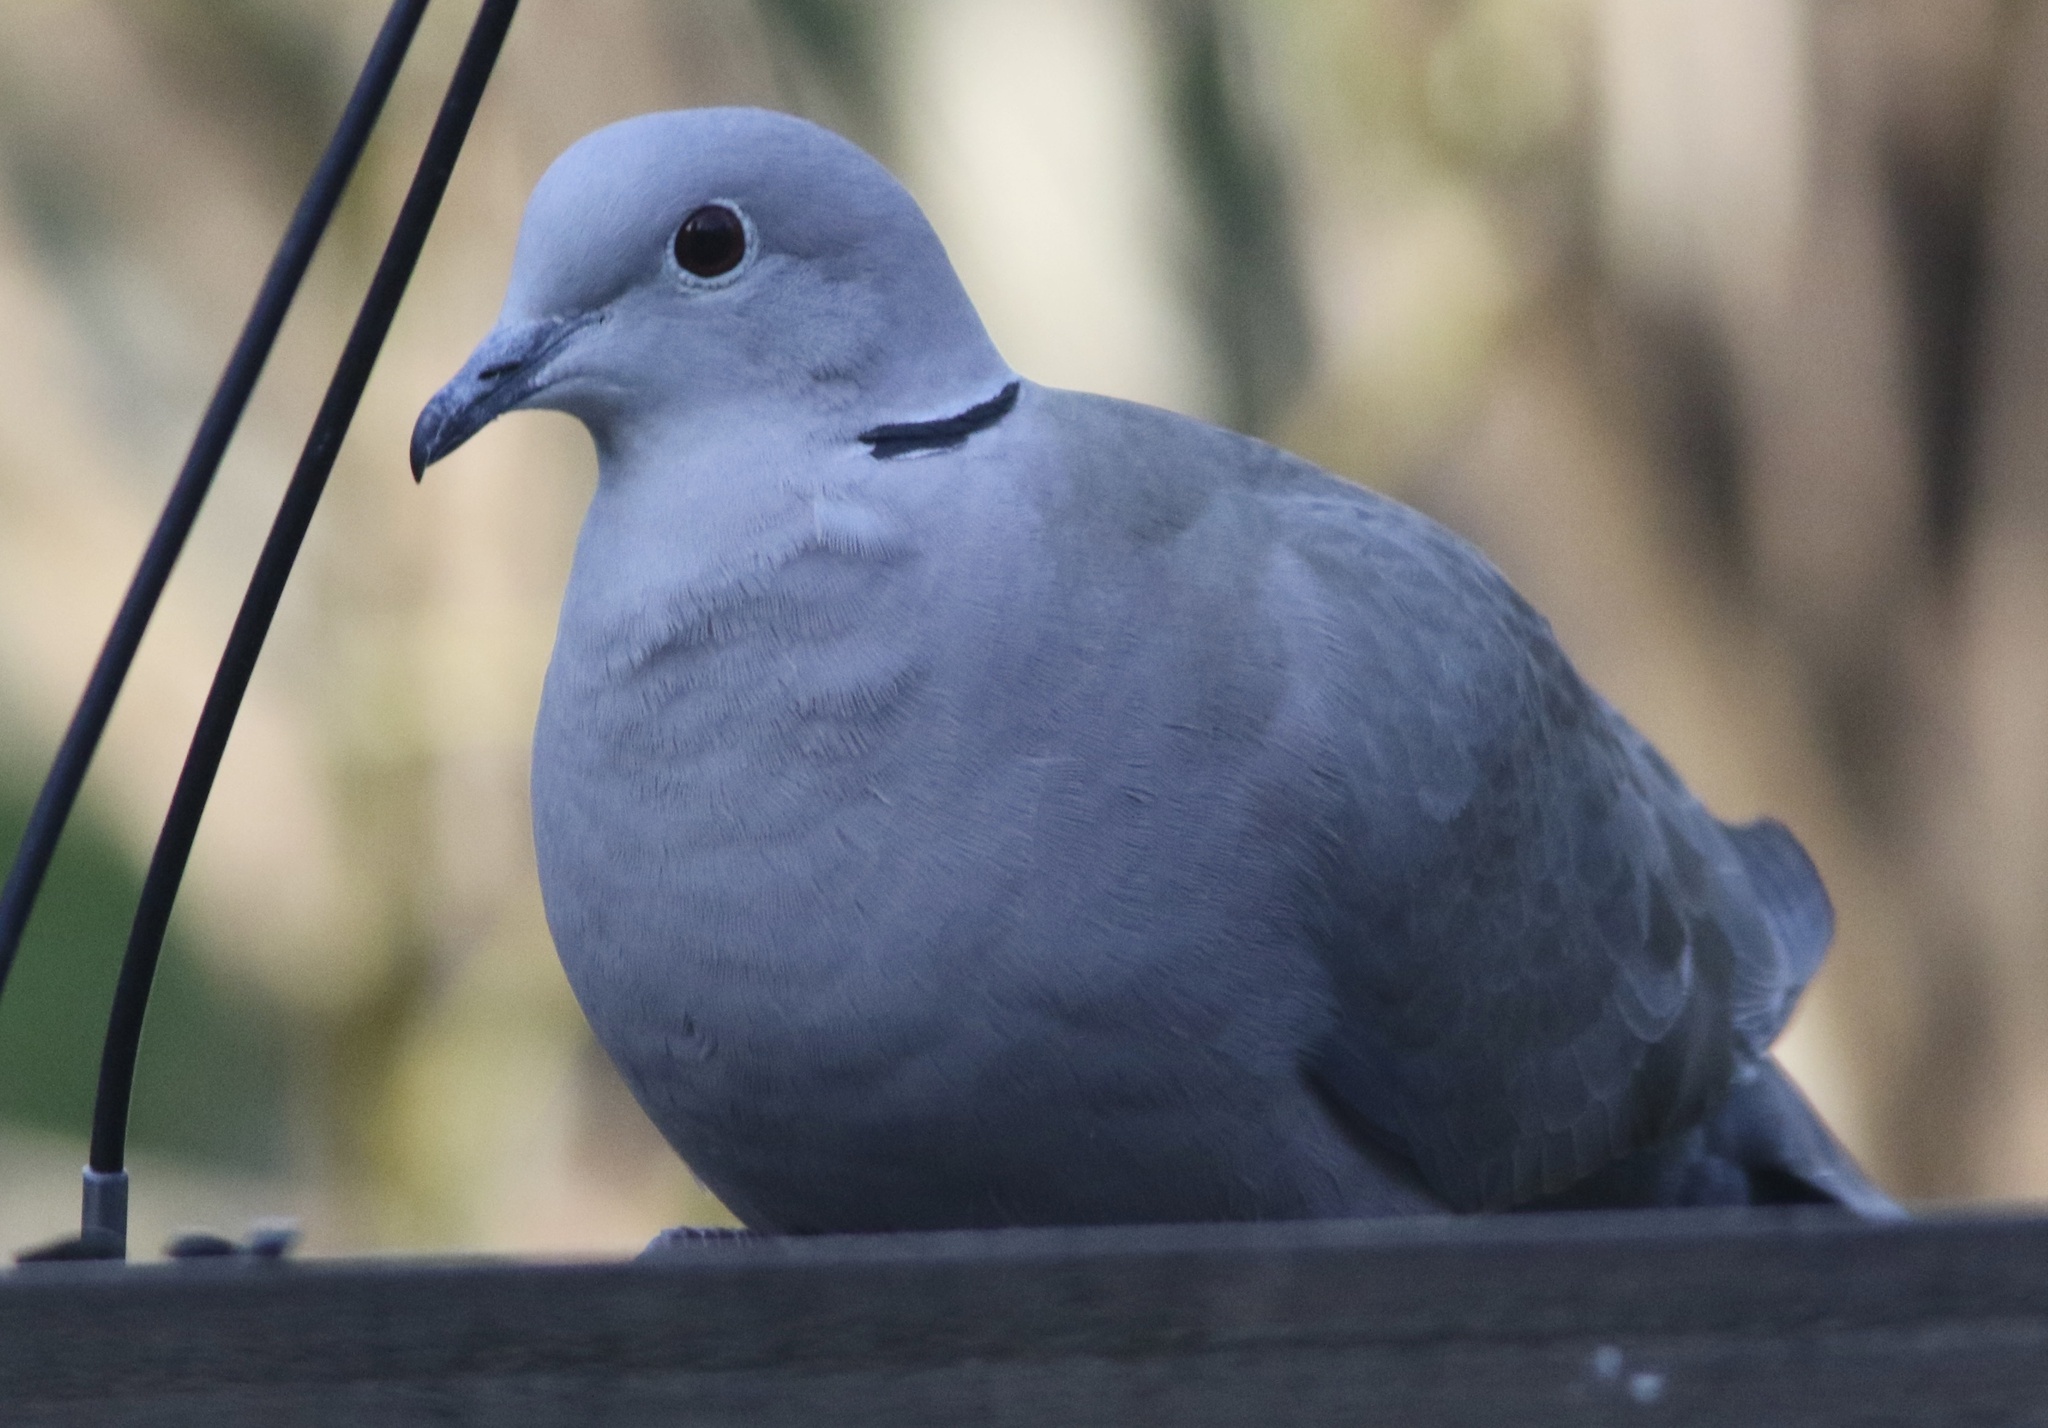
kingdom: Animalia
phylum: Chordata
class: Aves
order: Columbiformes
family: Columbidae
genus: Streptopelia
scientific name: Streptopelia decaocto
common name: Eurasian collared dove
